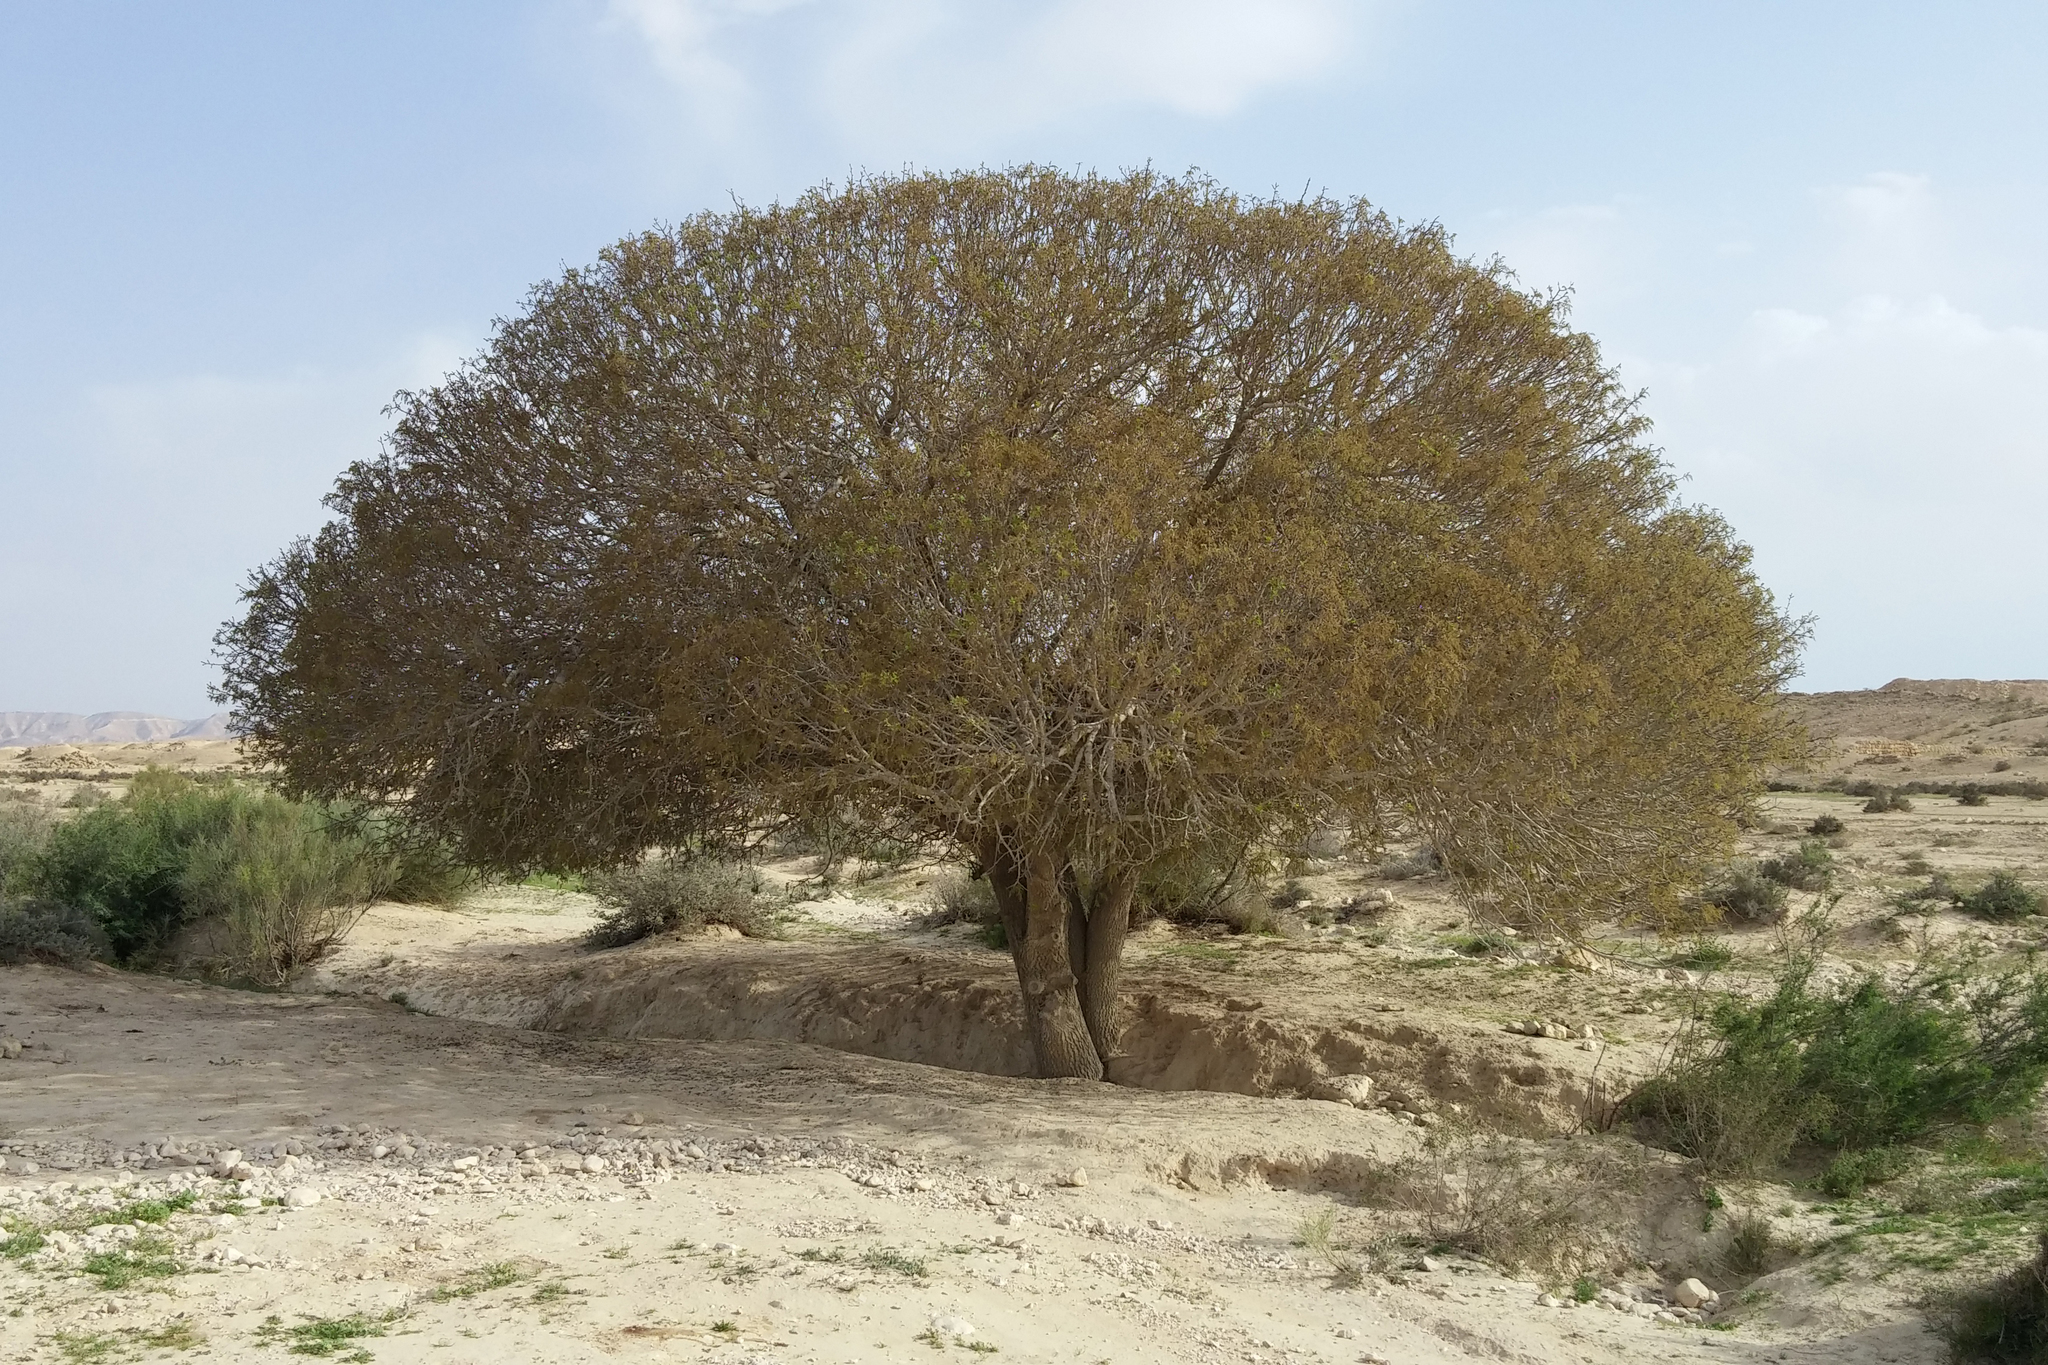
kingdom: Plantae
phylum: Tracheophyta
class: Magnoliopsida
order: Sapindales
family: Anacardiaceae
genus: Pistacia
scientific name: Pistacia atlantica
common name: Mt. atlas mastic tree
